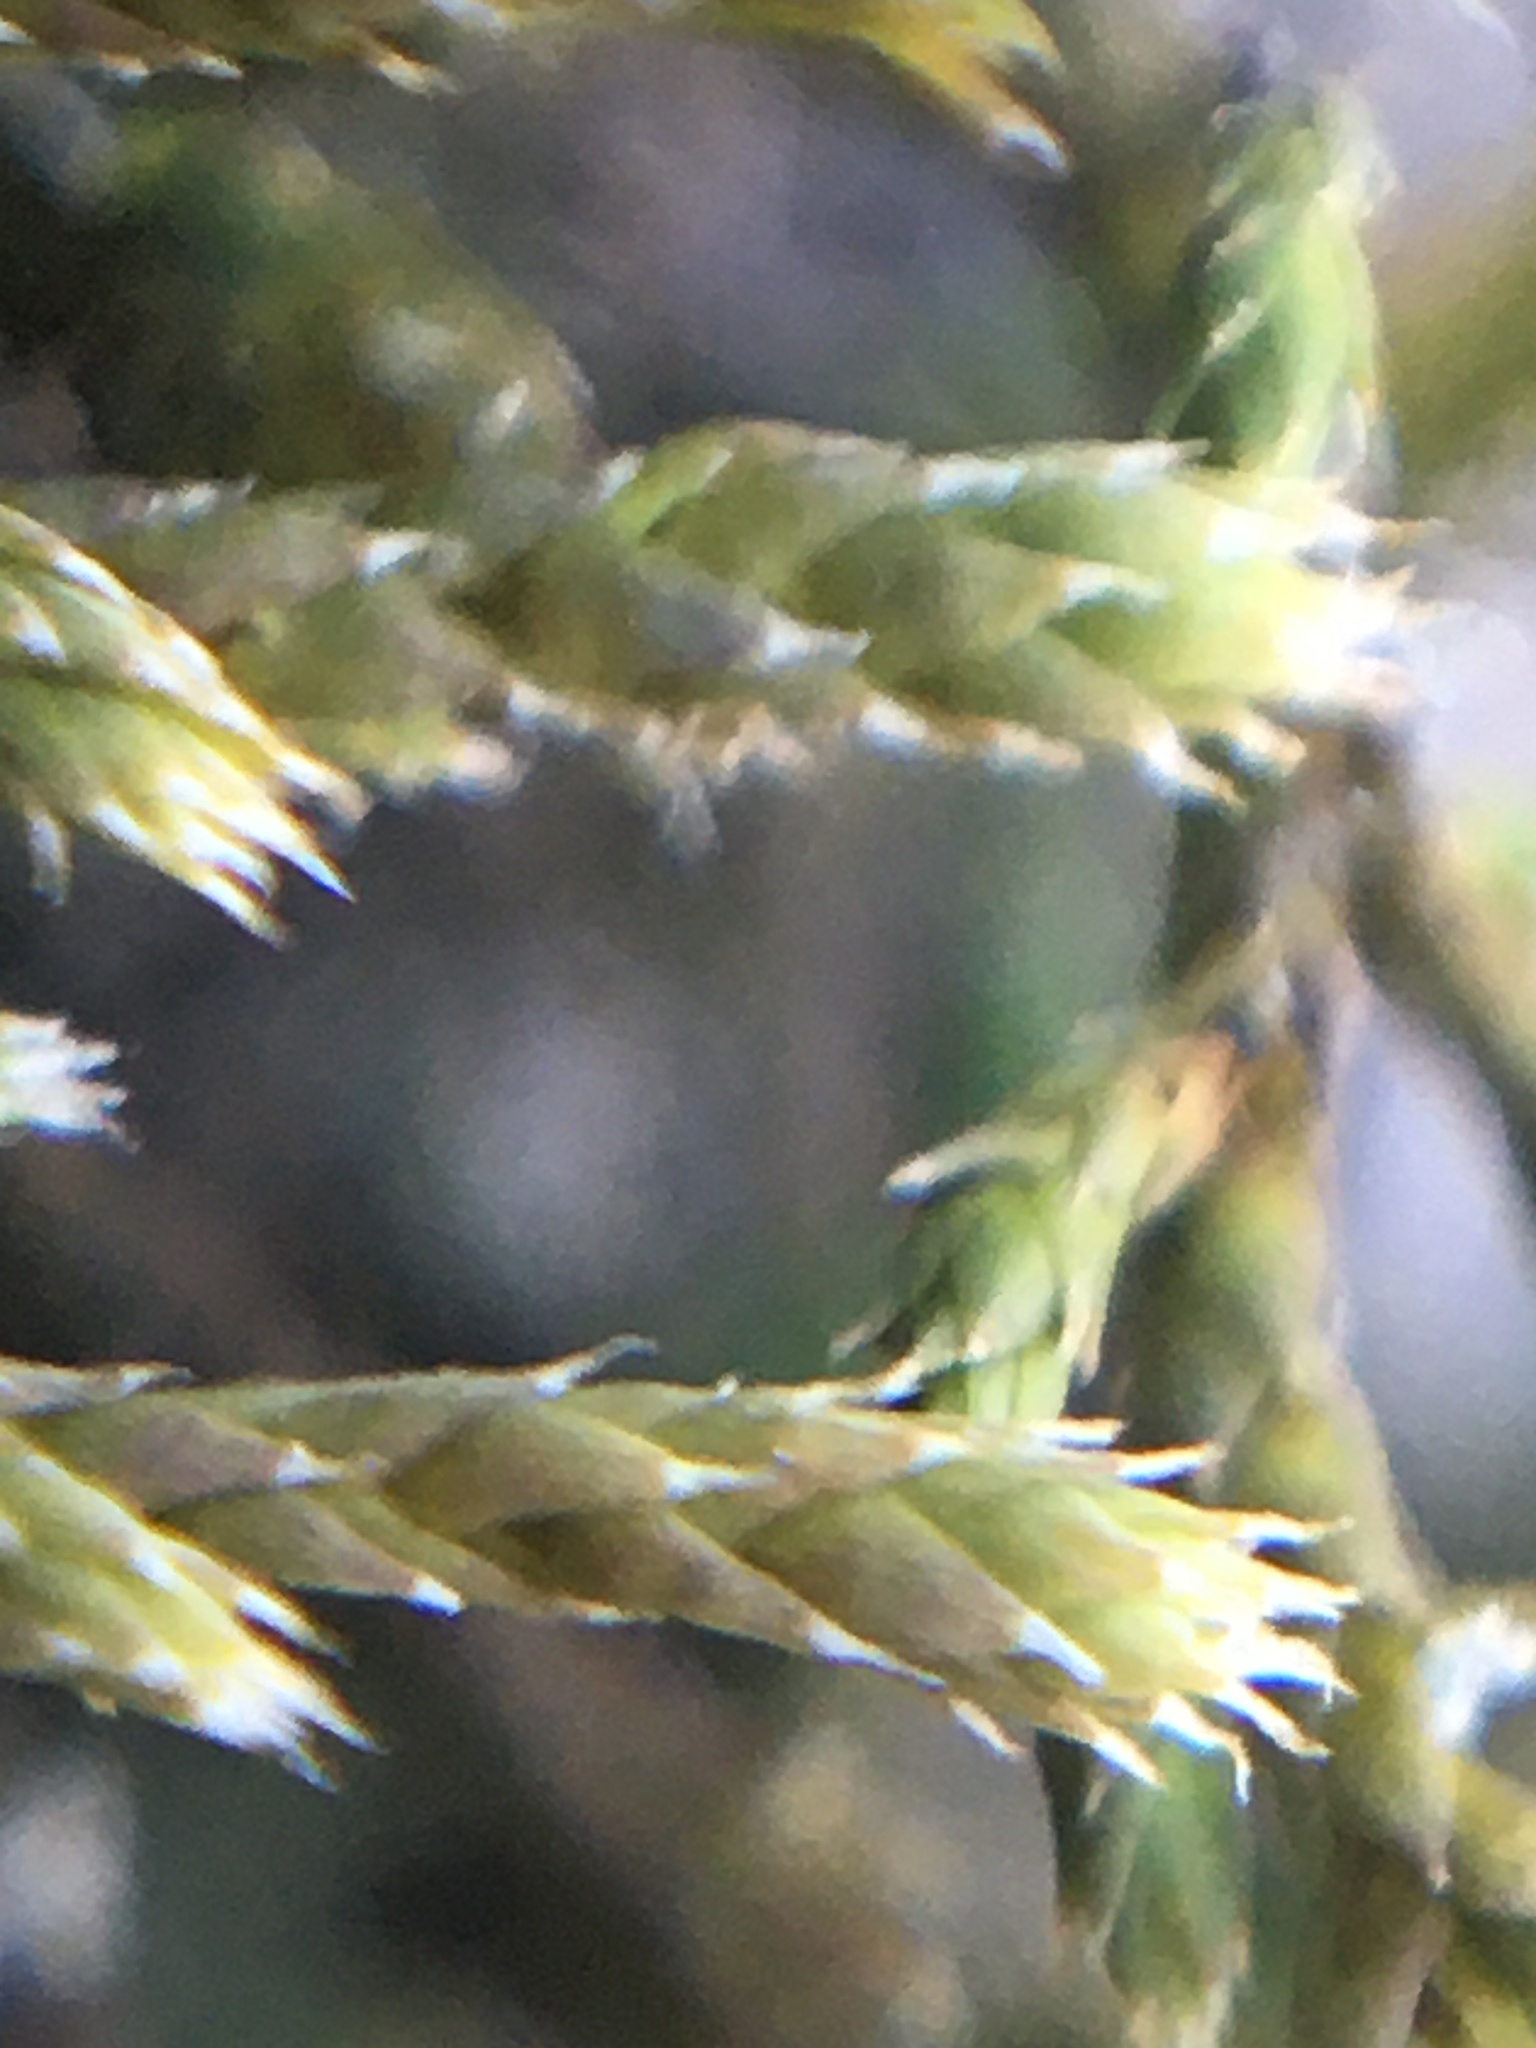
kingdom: Plantae
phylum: Bryophyta
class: Bryopsida
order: Hedwigiales
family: Hedwigiaceae
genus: Hedwigia
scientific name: Hedwigia ciliata
